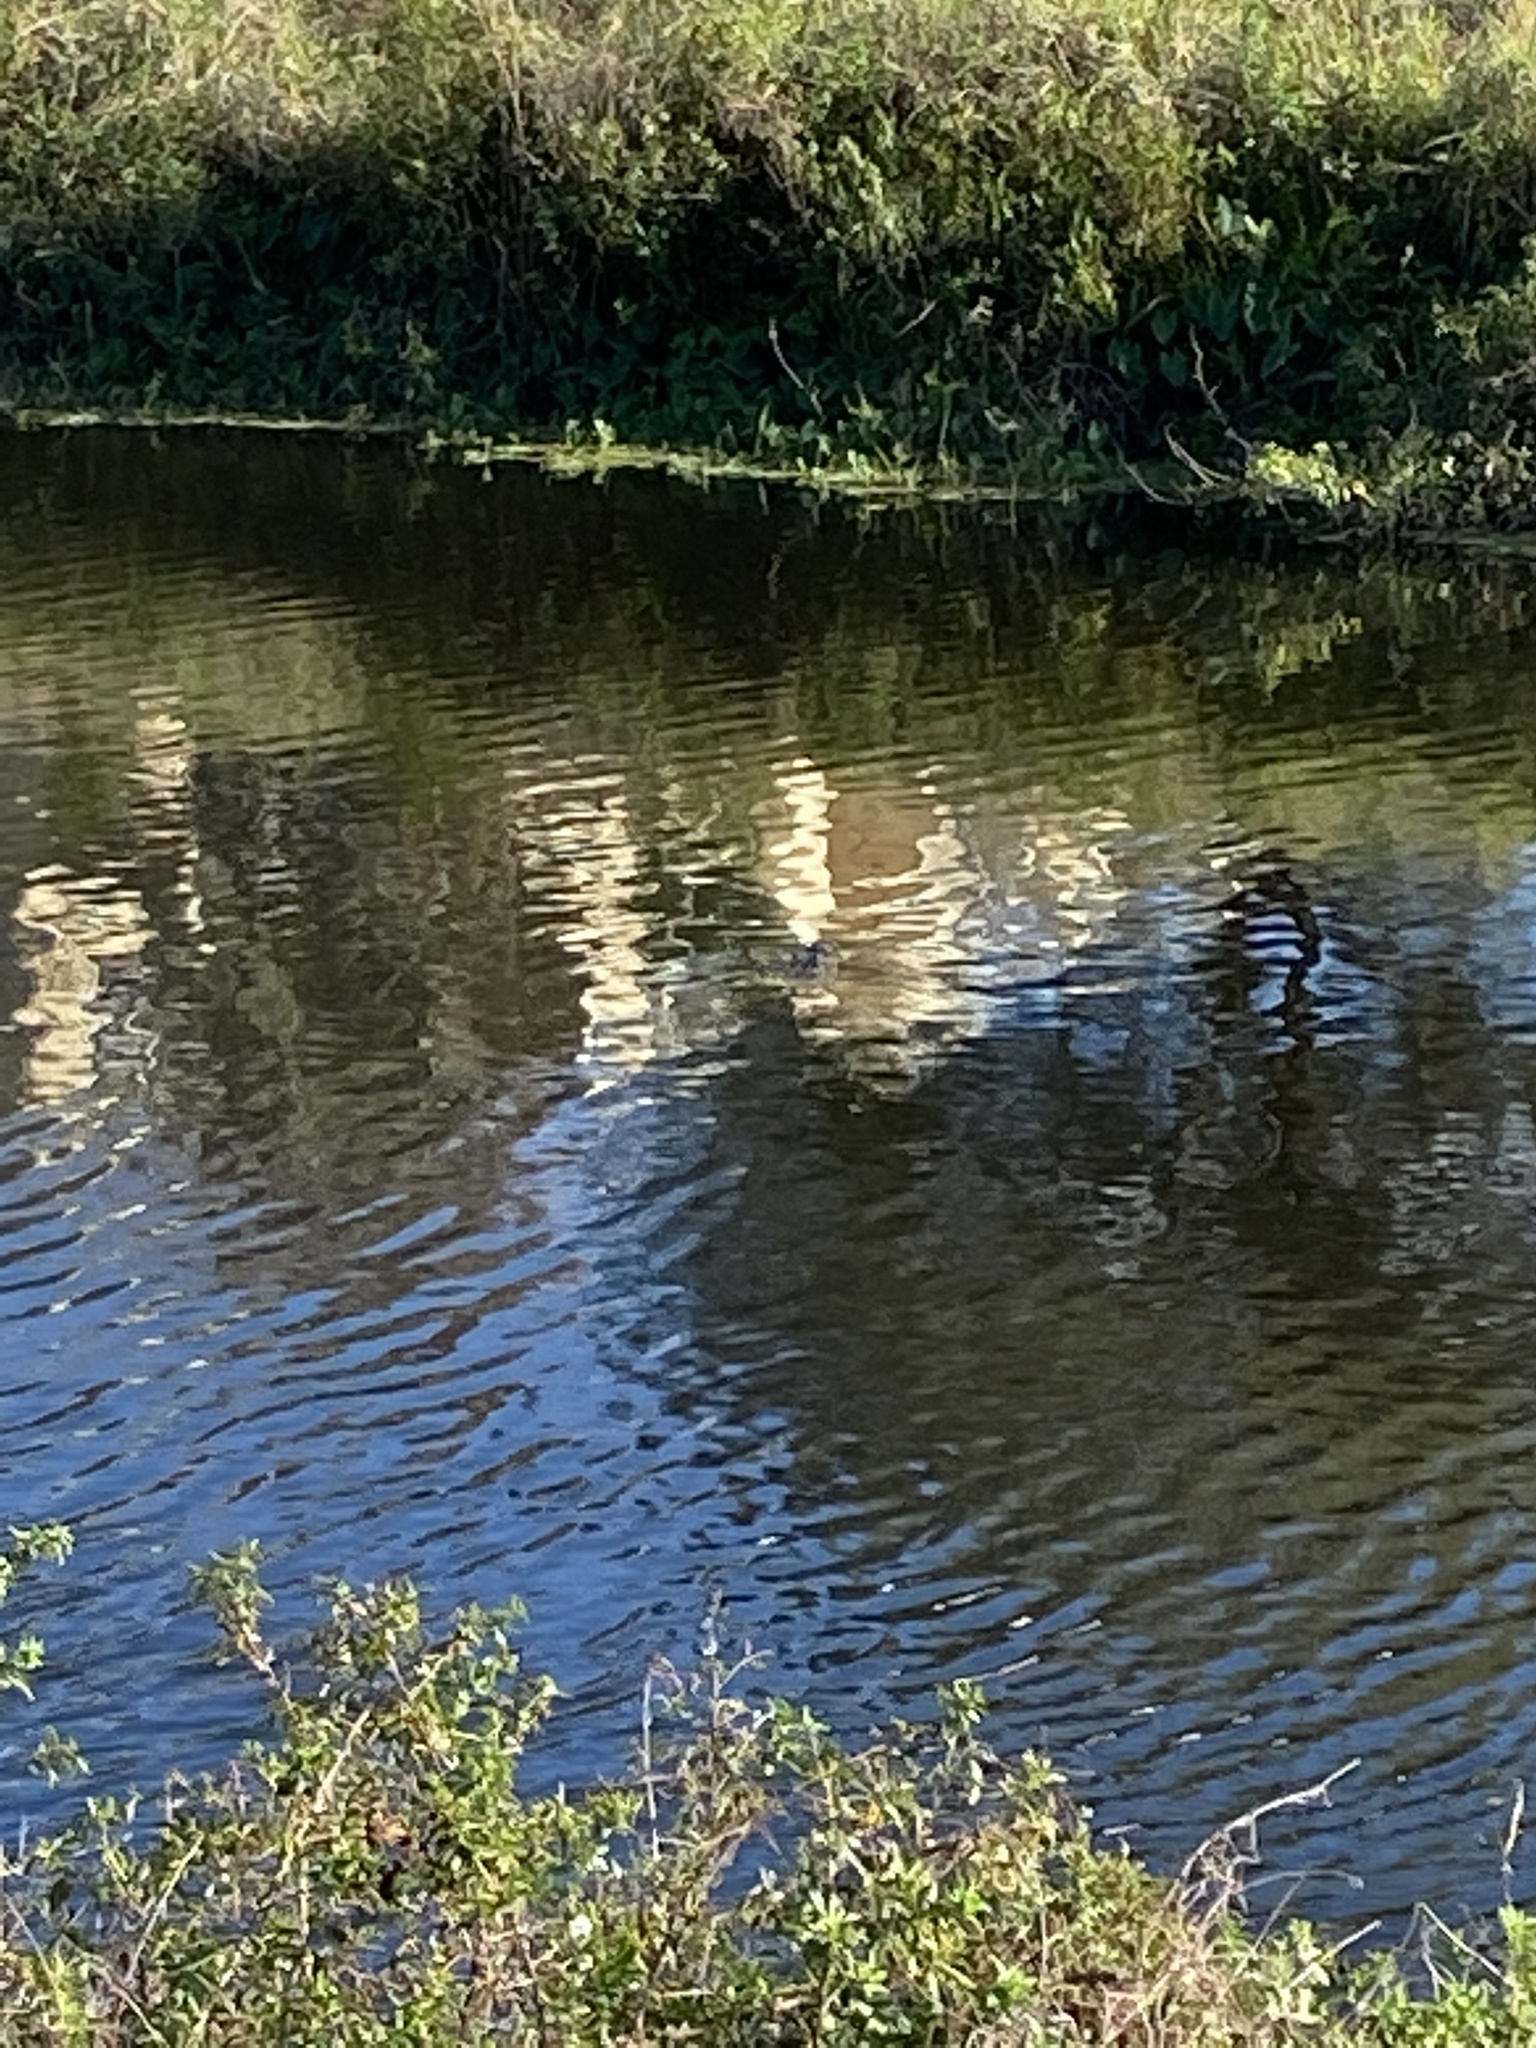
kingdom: Animalia
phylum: Chordata
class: Crocodylia
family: Alligatoridae
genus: Alligator
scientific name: Alligator mississippiensis
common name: American alligator
